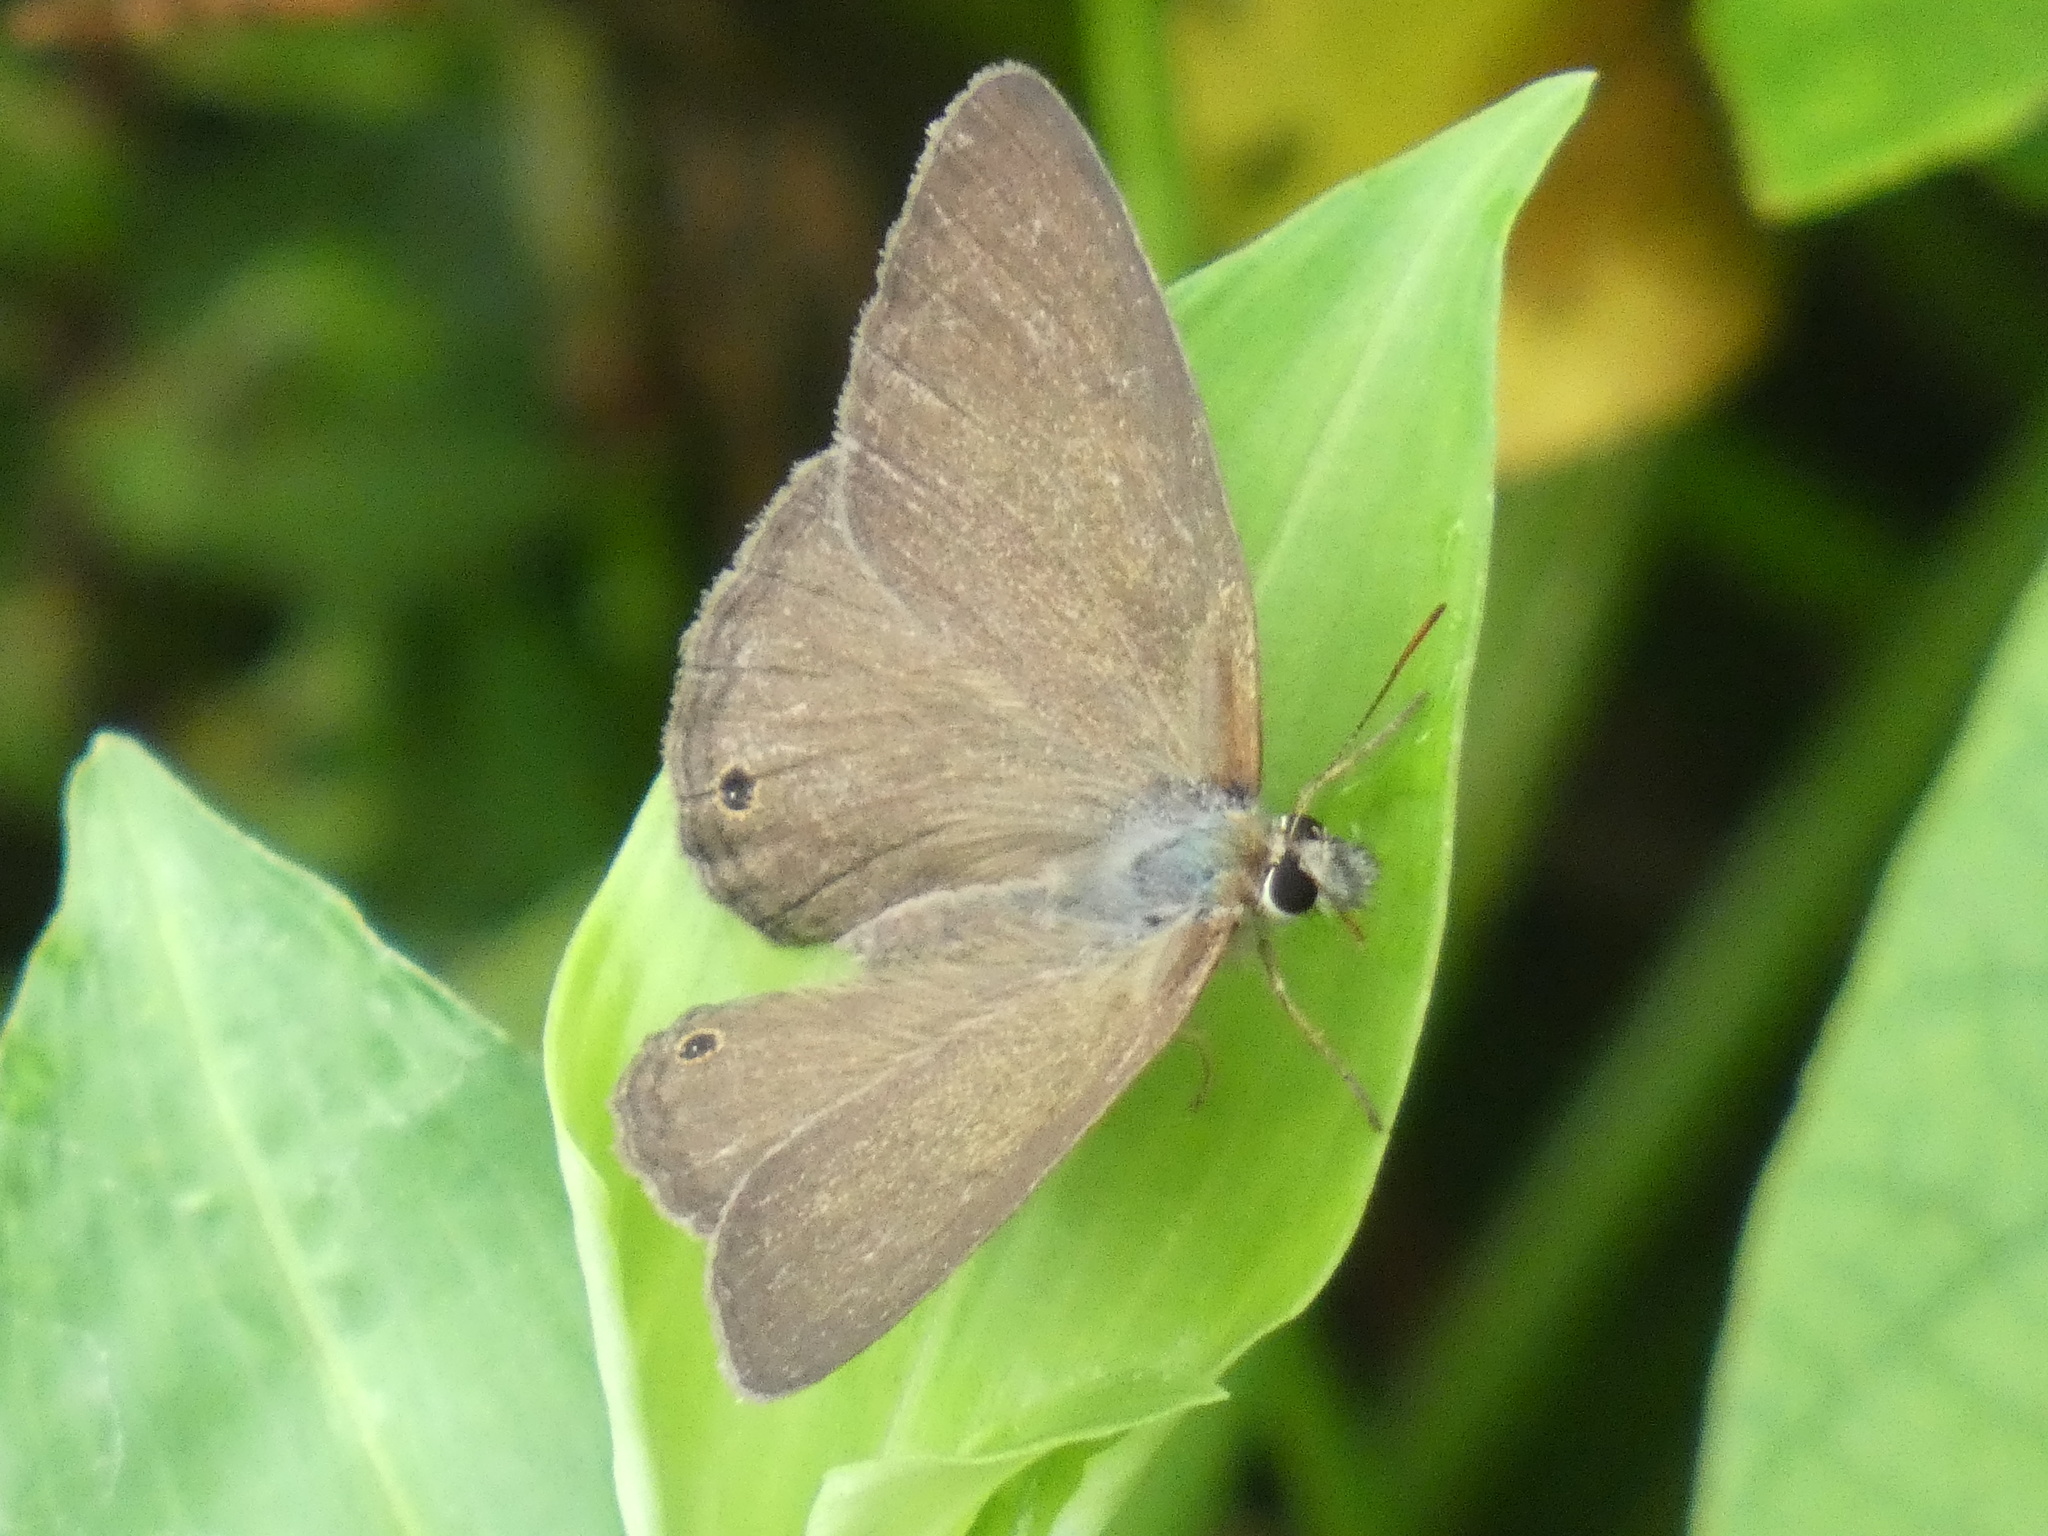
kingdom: Animalia
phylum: Arthropoda
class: Insecta
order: Lepidoptera
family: Nymphalidae
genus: Euptychia
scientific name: Euptychia Cissia eous
